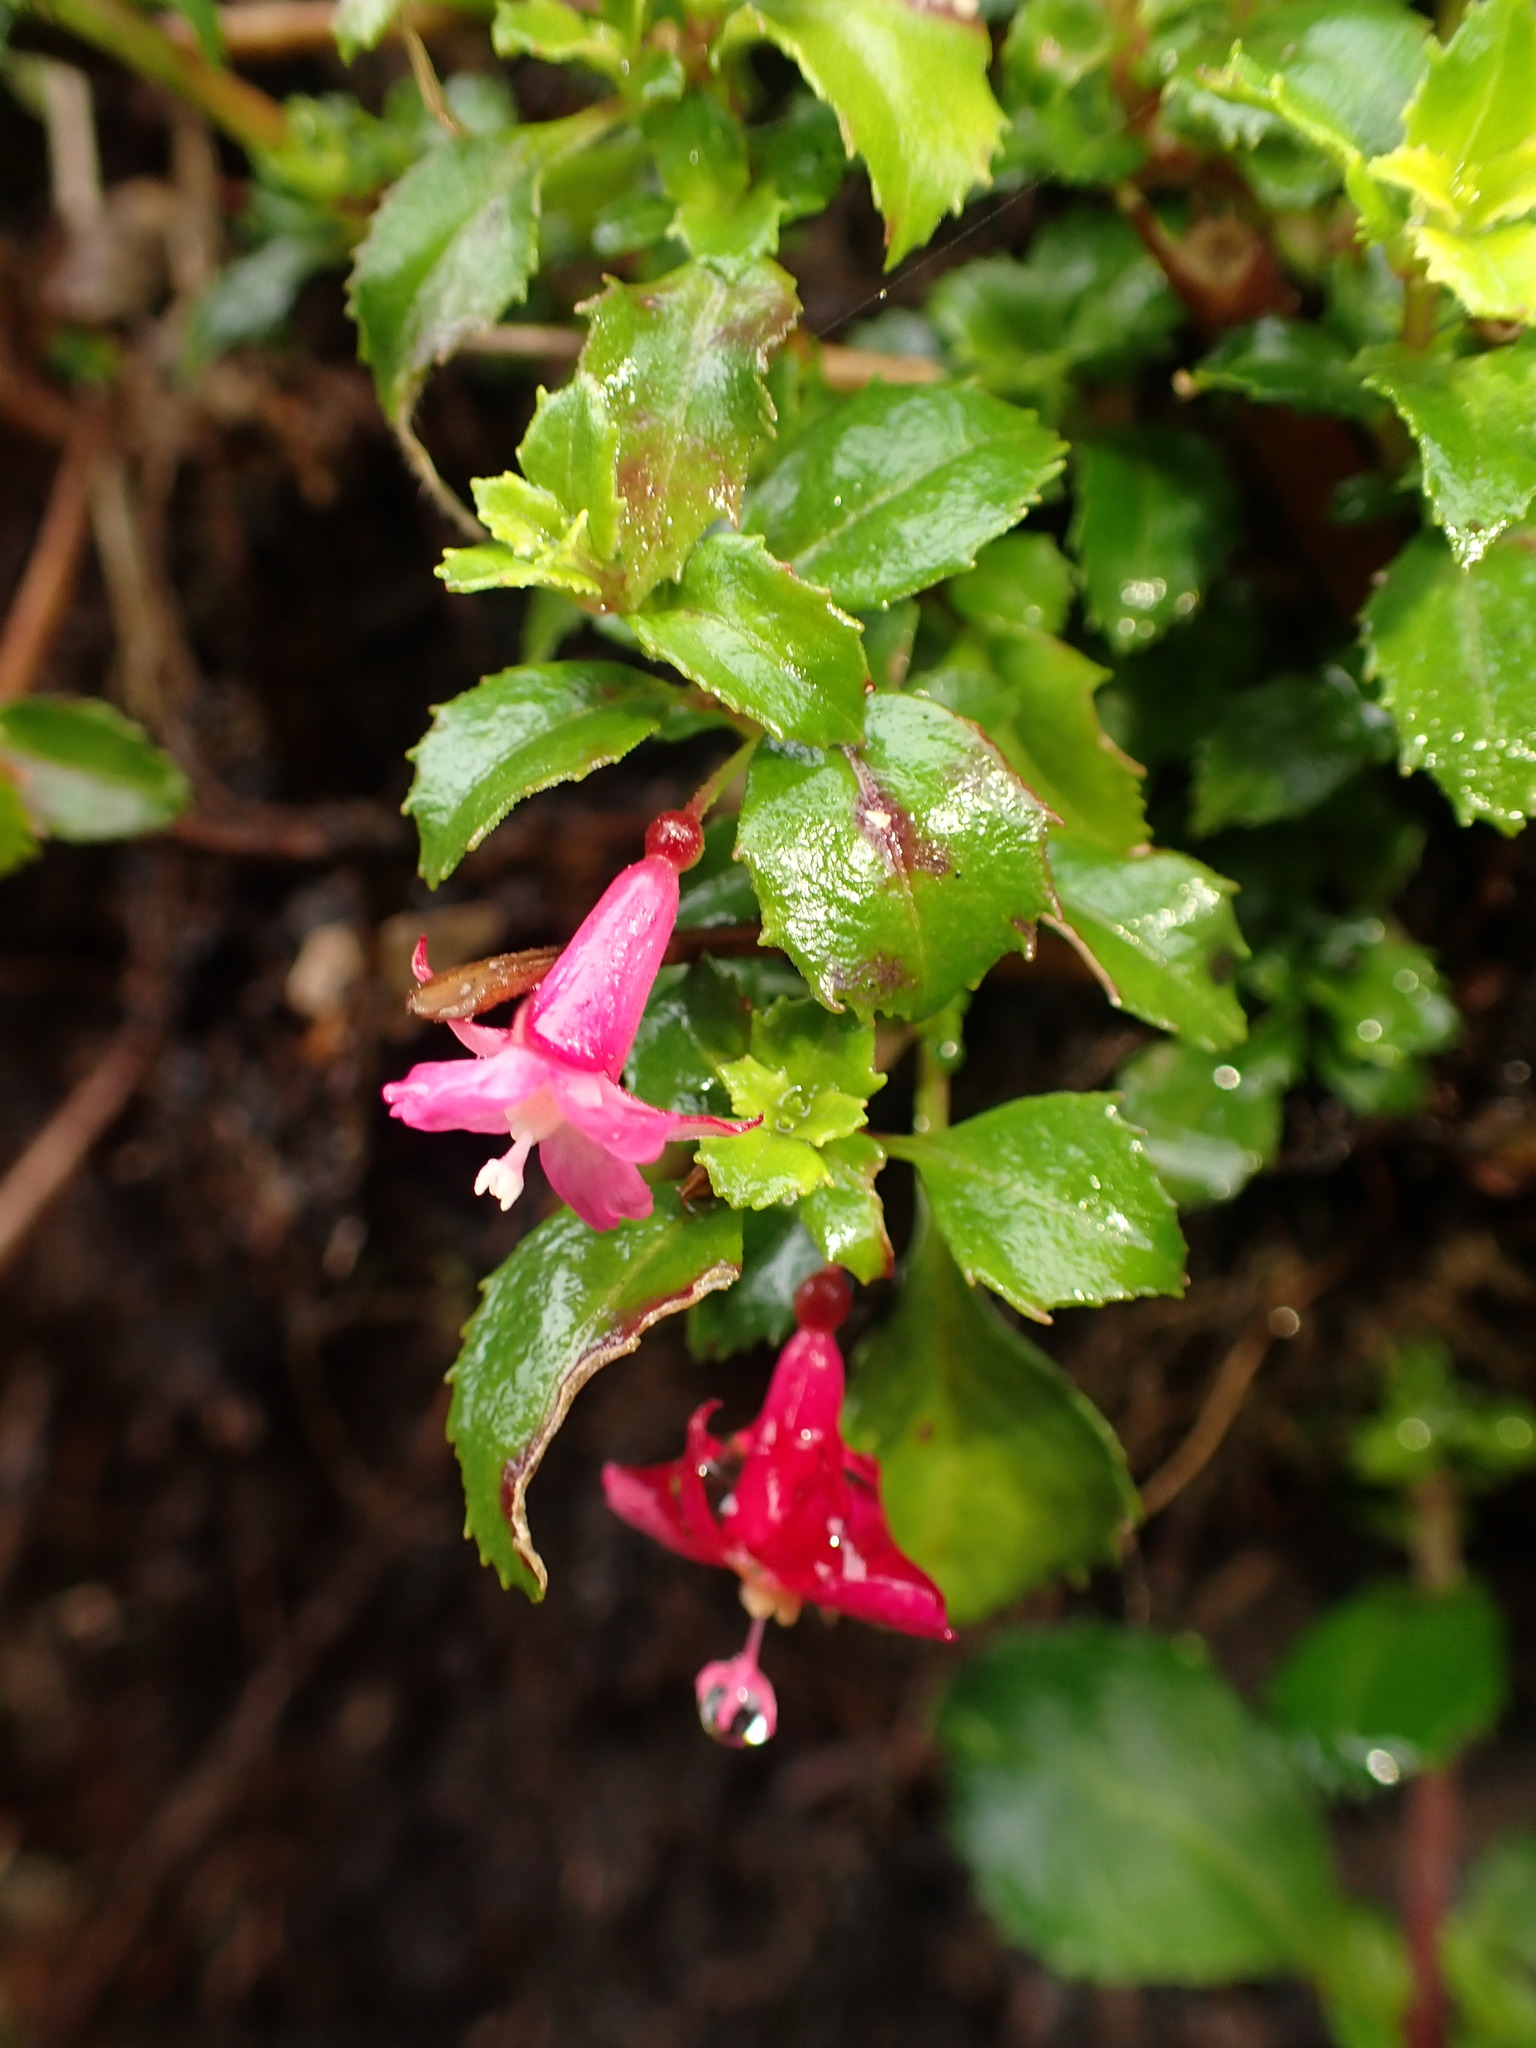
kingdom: Plantae
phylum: Tracheophyta
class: Magnoliopsida
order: Myrtales
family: Onagraceae
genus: Fuchsia
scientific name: Fuchsia microphylla
